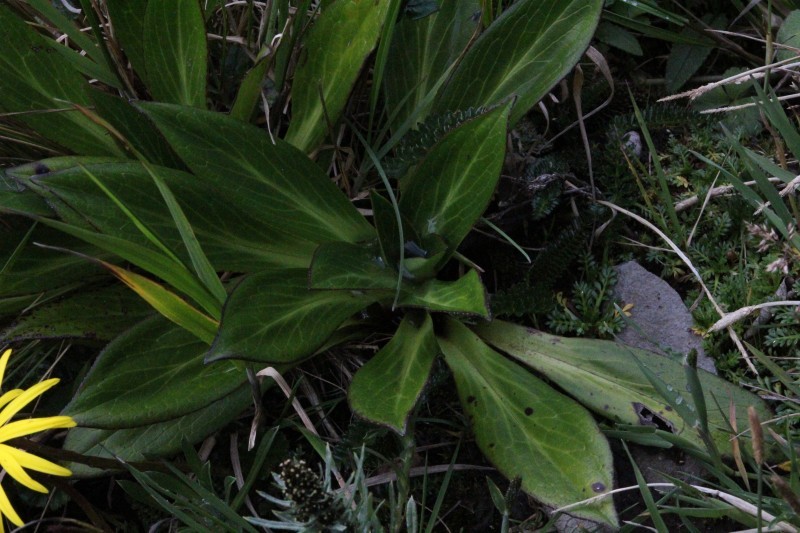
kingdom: Plantae
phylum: Tracheophyta
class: Magnoliopsida
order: Dipsacales
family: Caprifoliaceae
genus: Valeriana
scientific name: Valeriana pilosa
